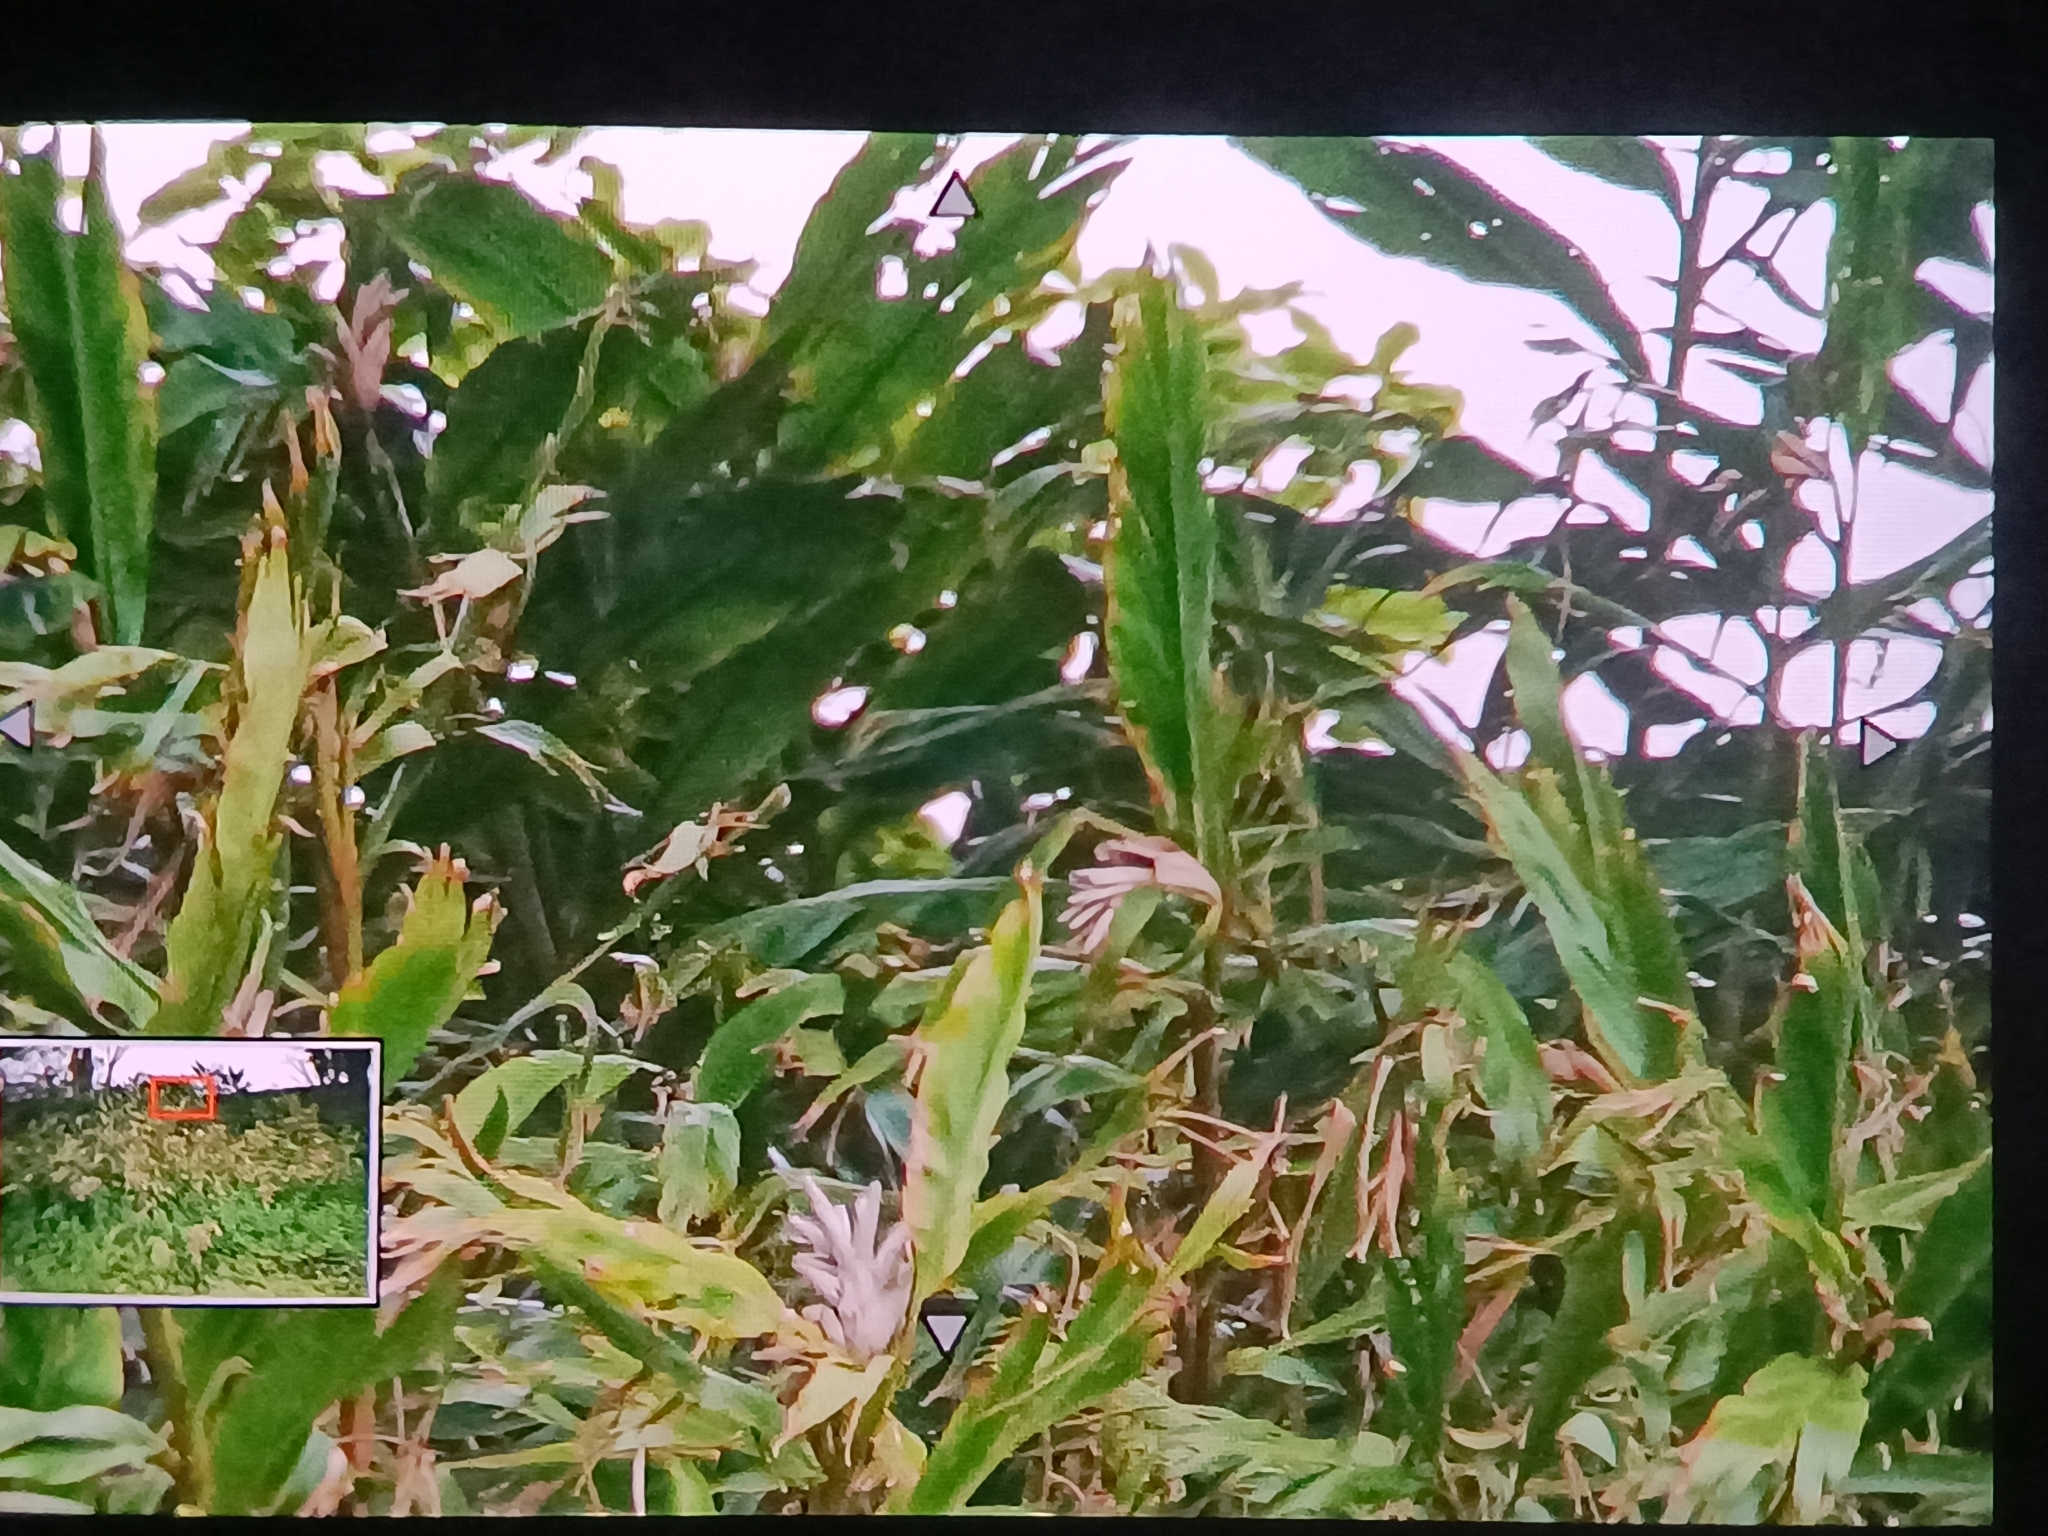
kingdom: Plantae
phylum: Tracheophyta
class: Liliopsida
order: Zingiberales
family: Zingiberaceae
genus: Hedychium
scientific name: Hedychium flavescens
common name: Yellow ginger
